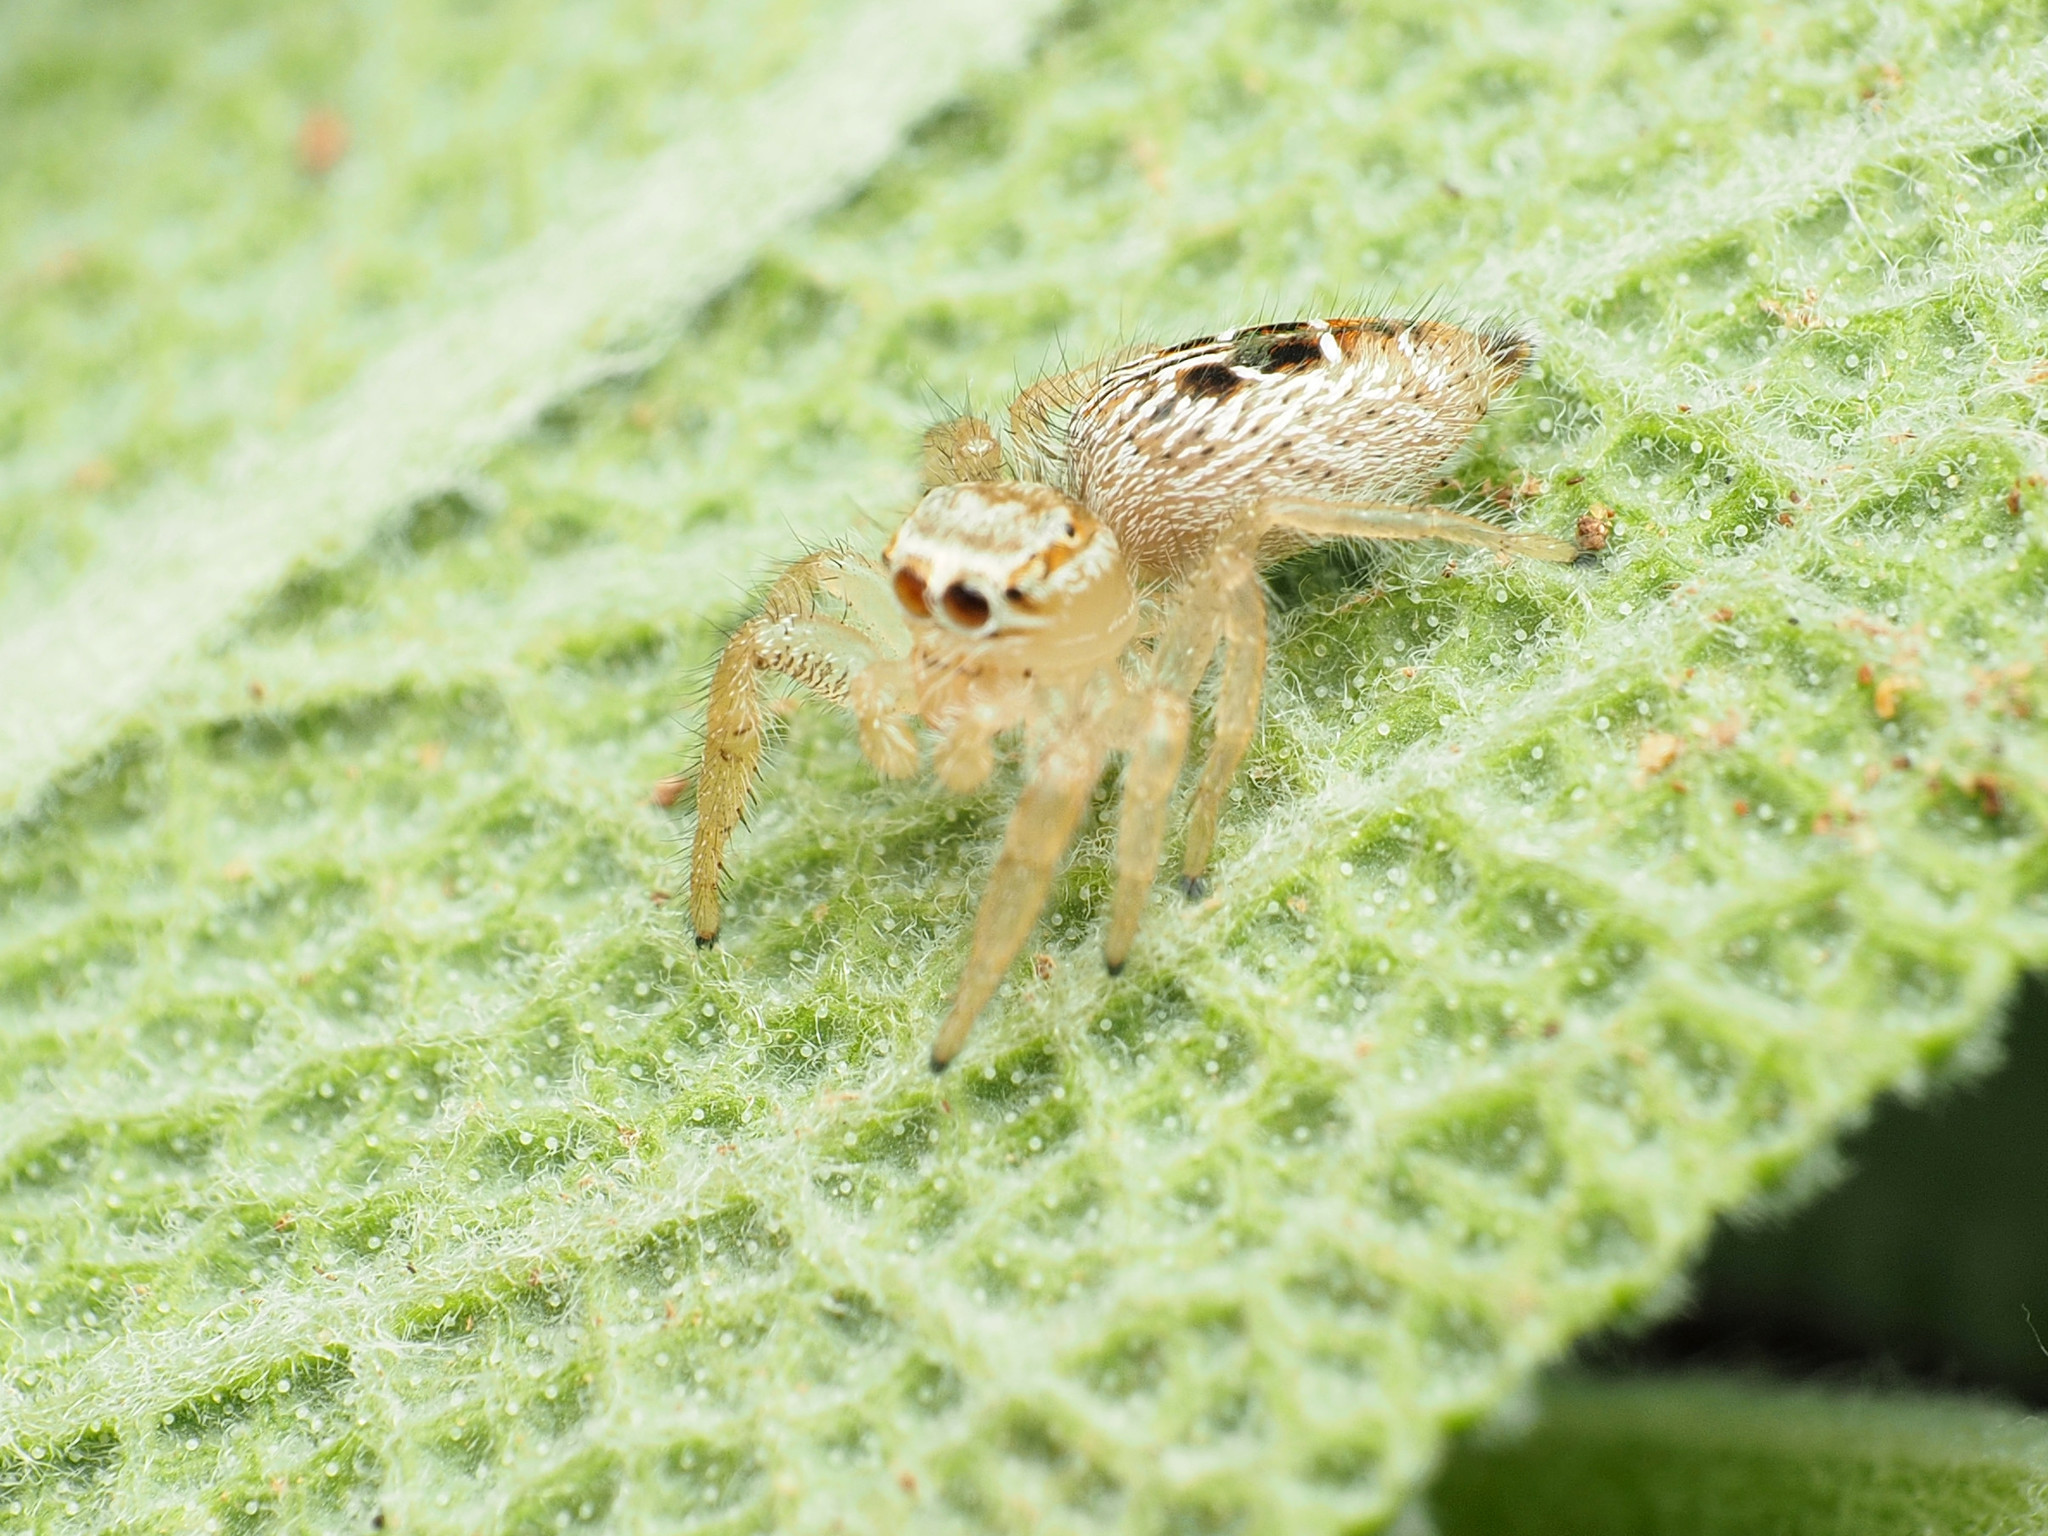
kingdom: Animalia
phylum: Arthropoda
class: Arachnida
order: Araneae
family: Salticidae
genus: Thyene
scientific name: Thyene imperialis
